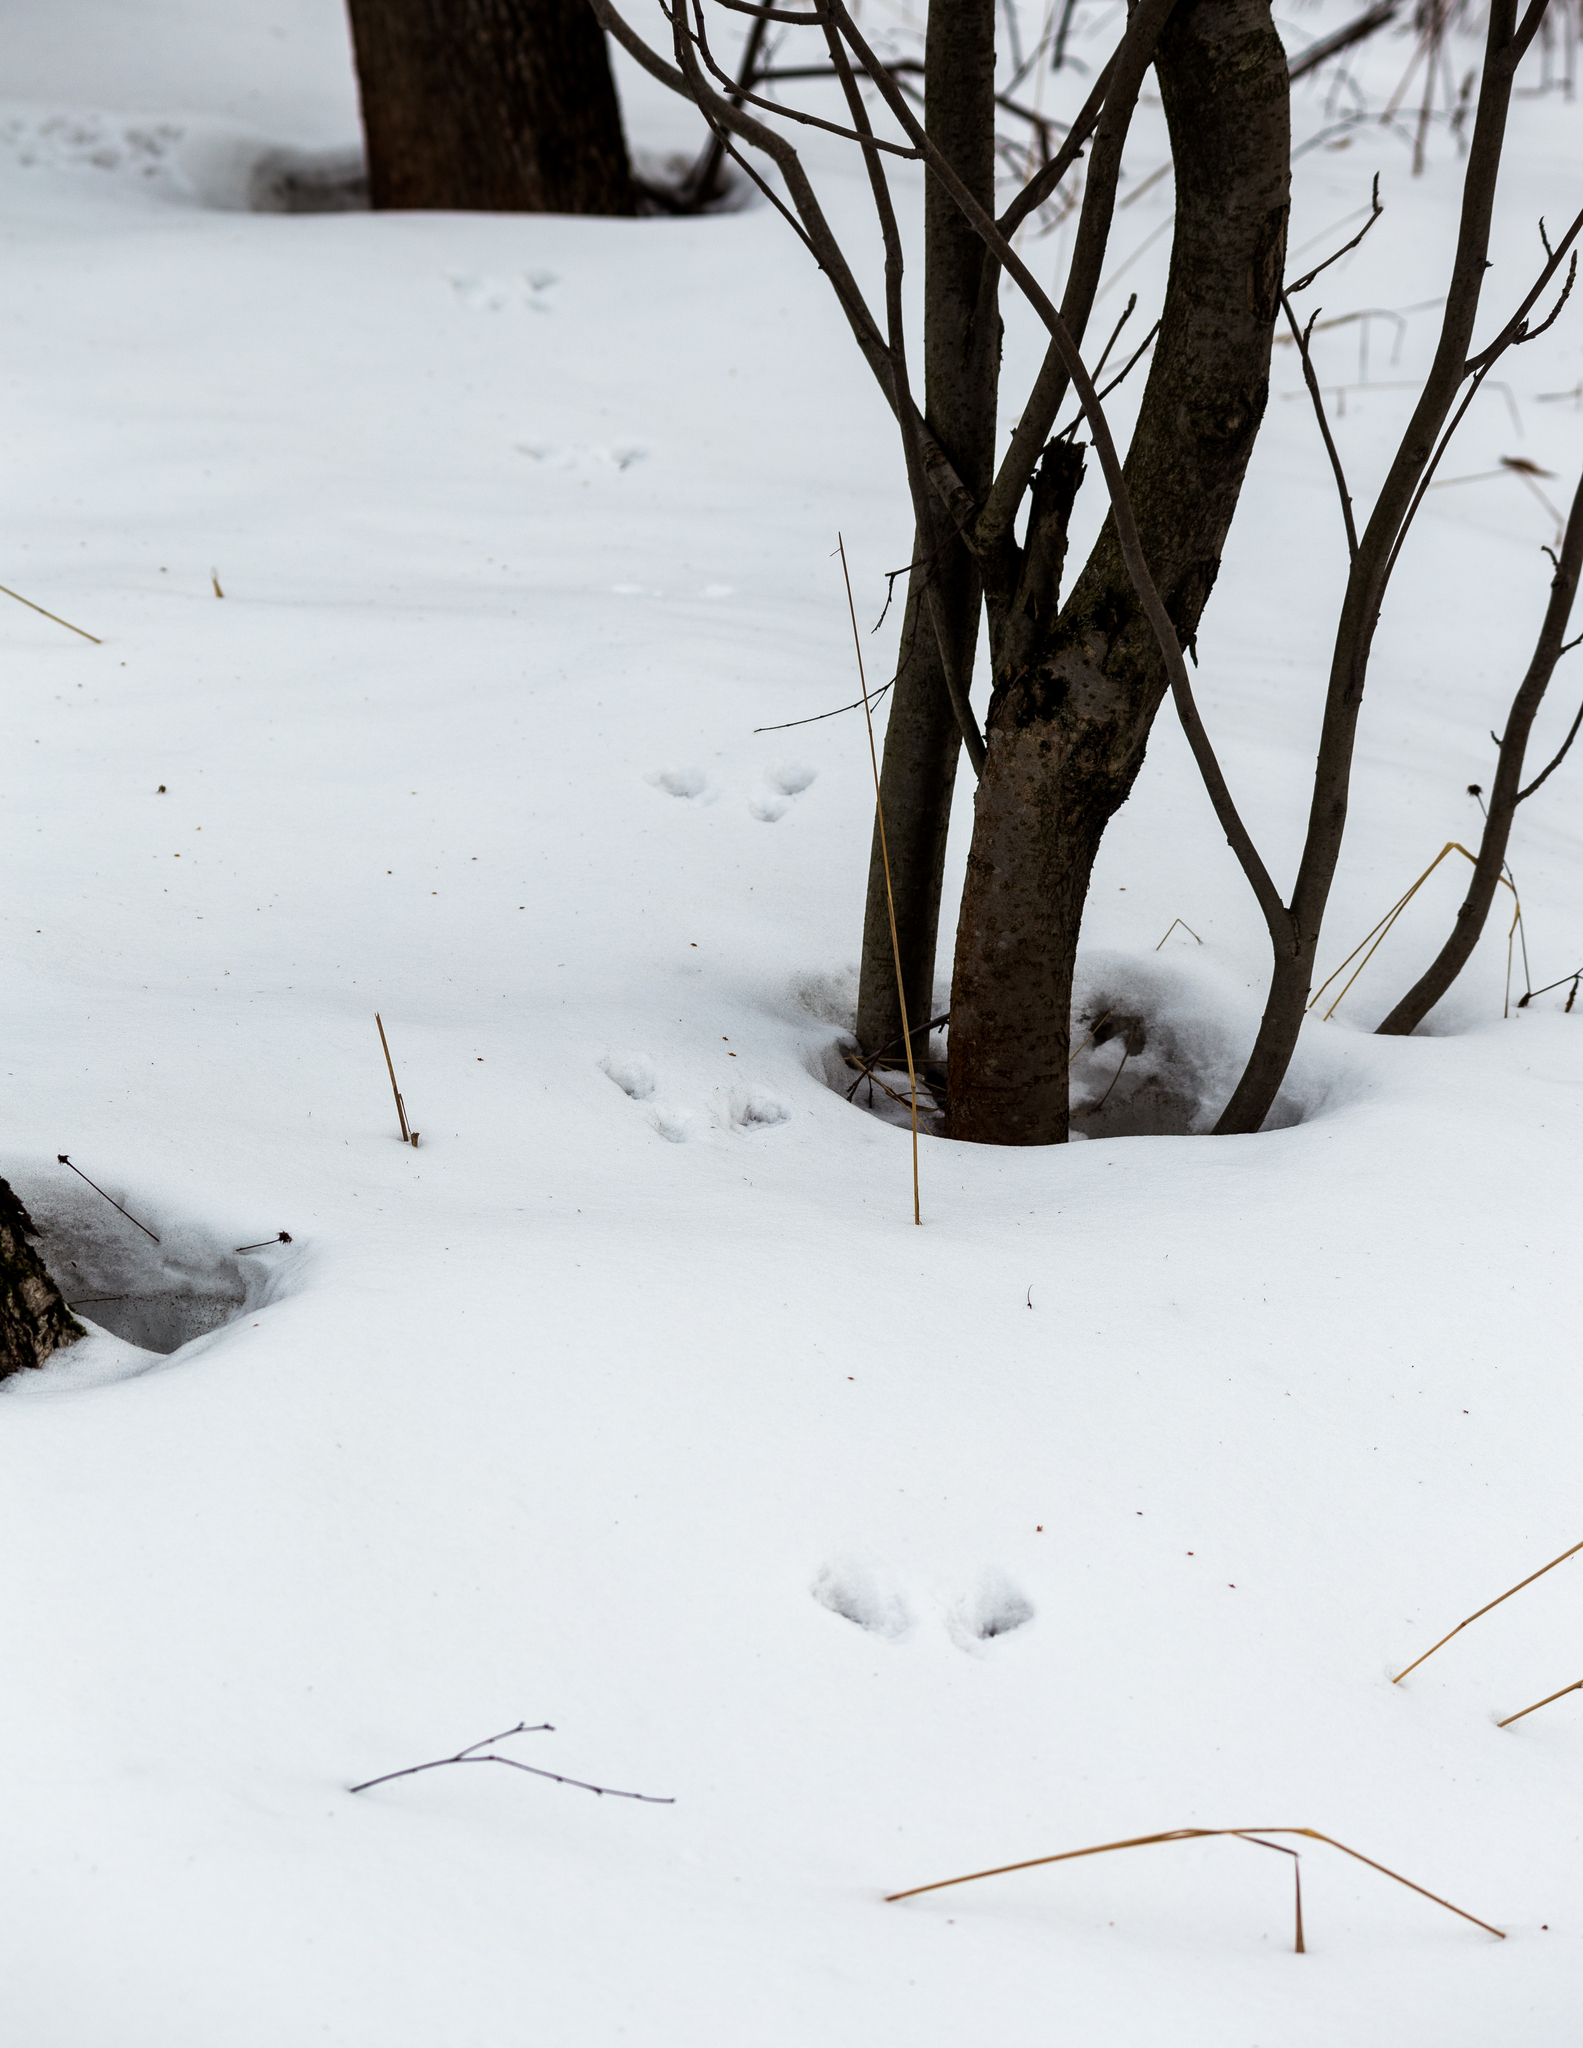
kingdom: Animalia
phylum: Chordata
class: Mammalia
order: Rodentia
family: Sciuridae
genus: Sciurus
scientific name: Sciurus vulgaris
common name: Eurasian red squirrel
